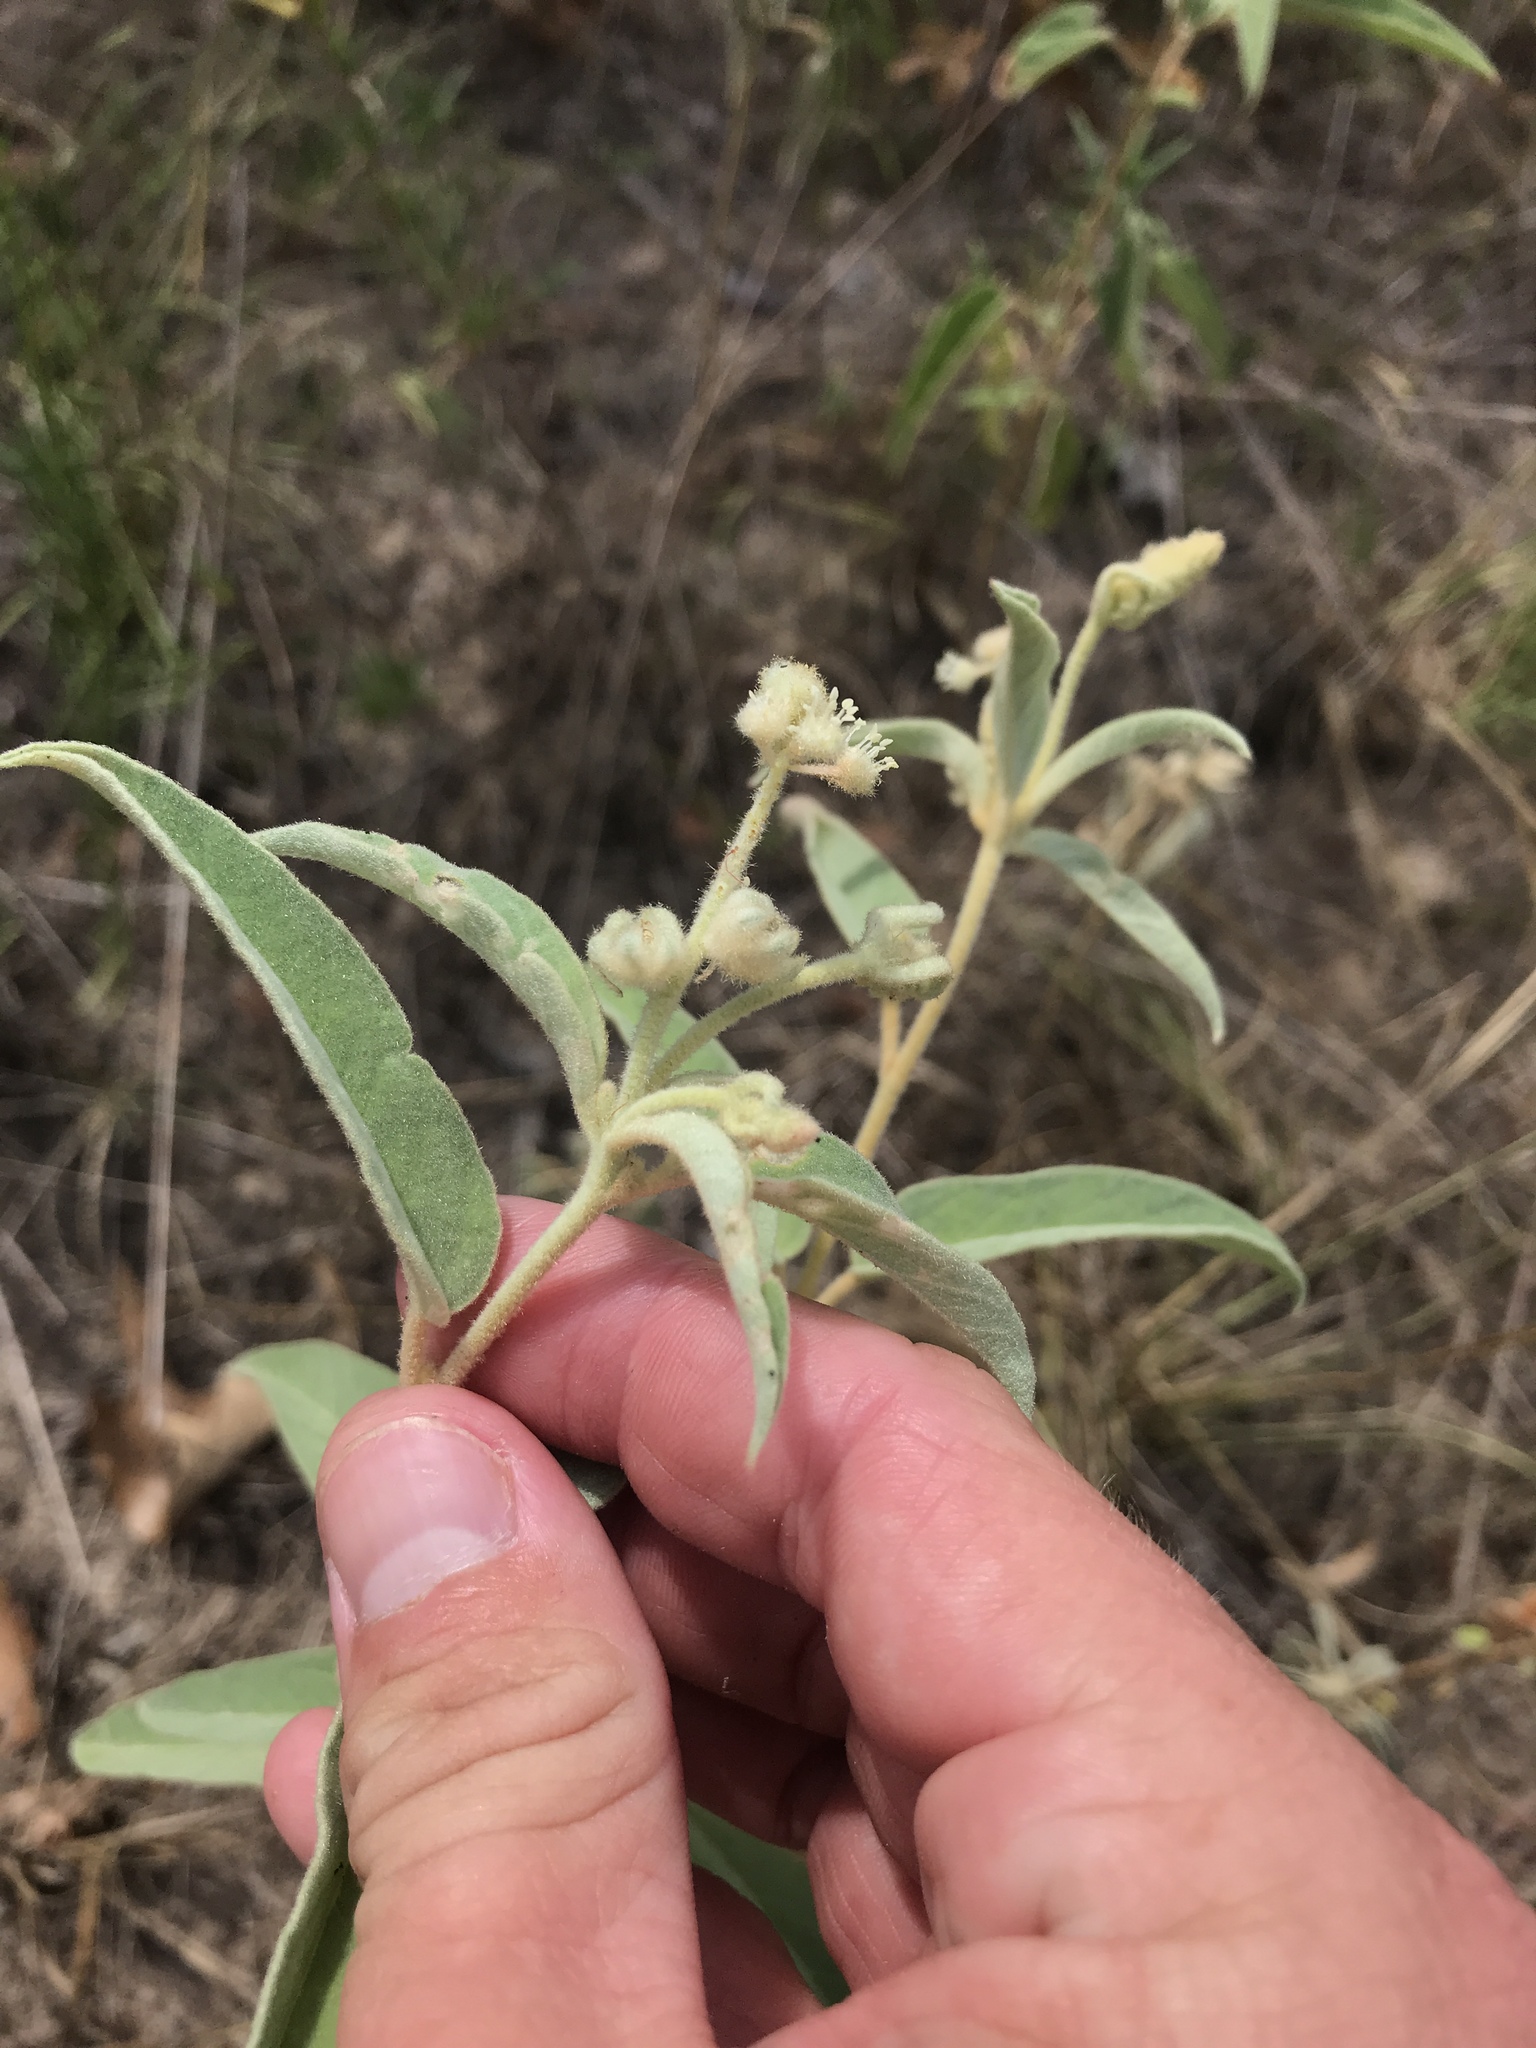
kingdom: Plantae
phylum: Tracheophyta
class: Magnoliopsida
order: Malpighiales
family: Euphorbiaceae
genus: Croton
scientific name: Croton lindheimeri
